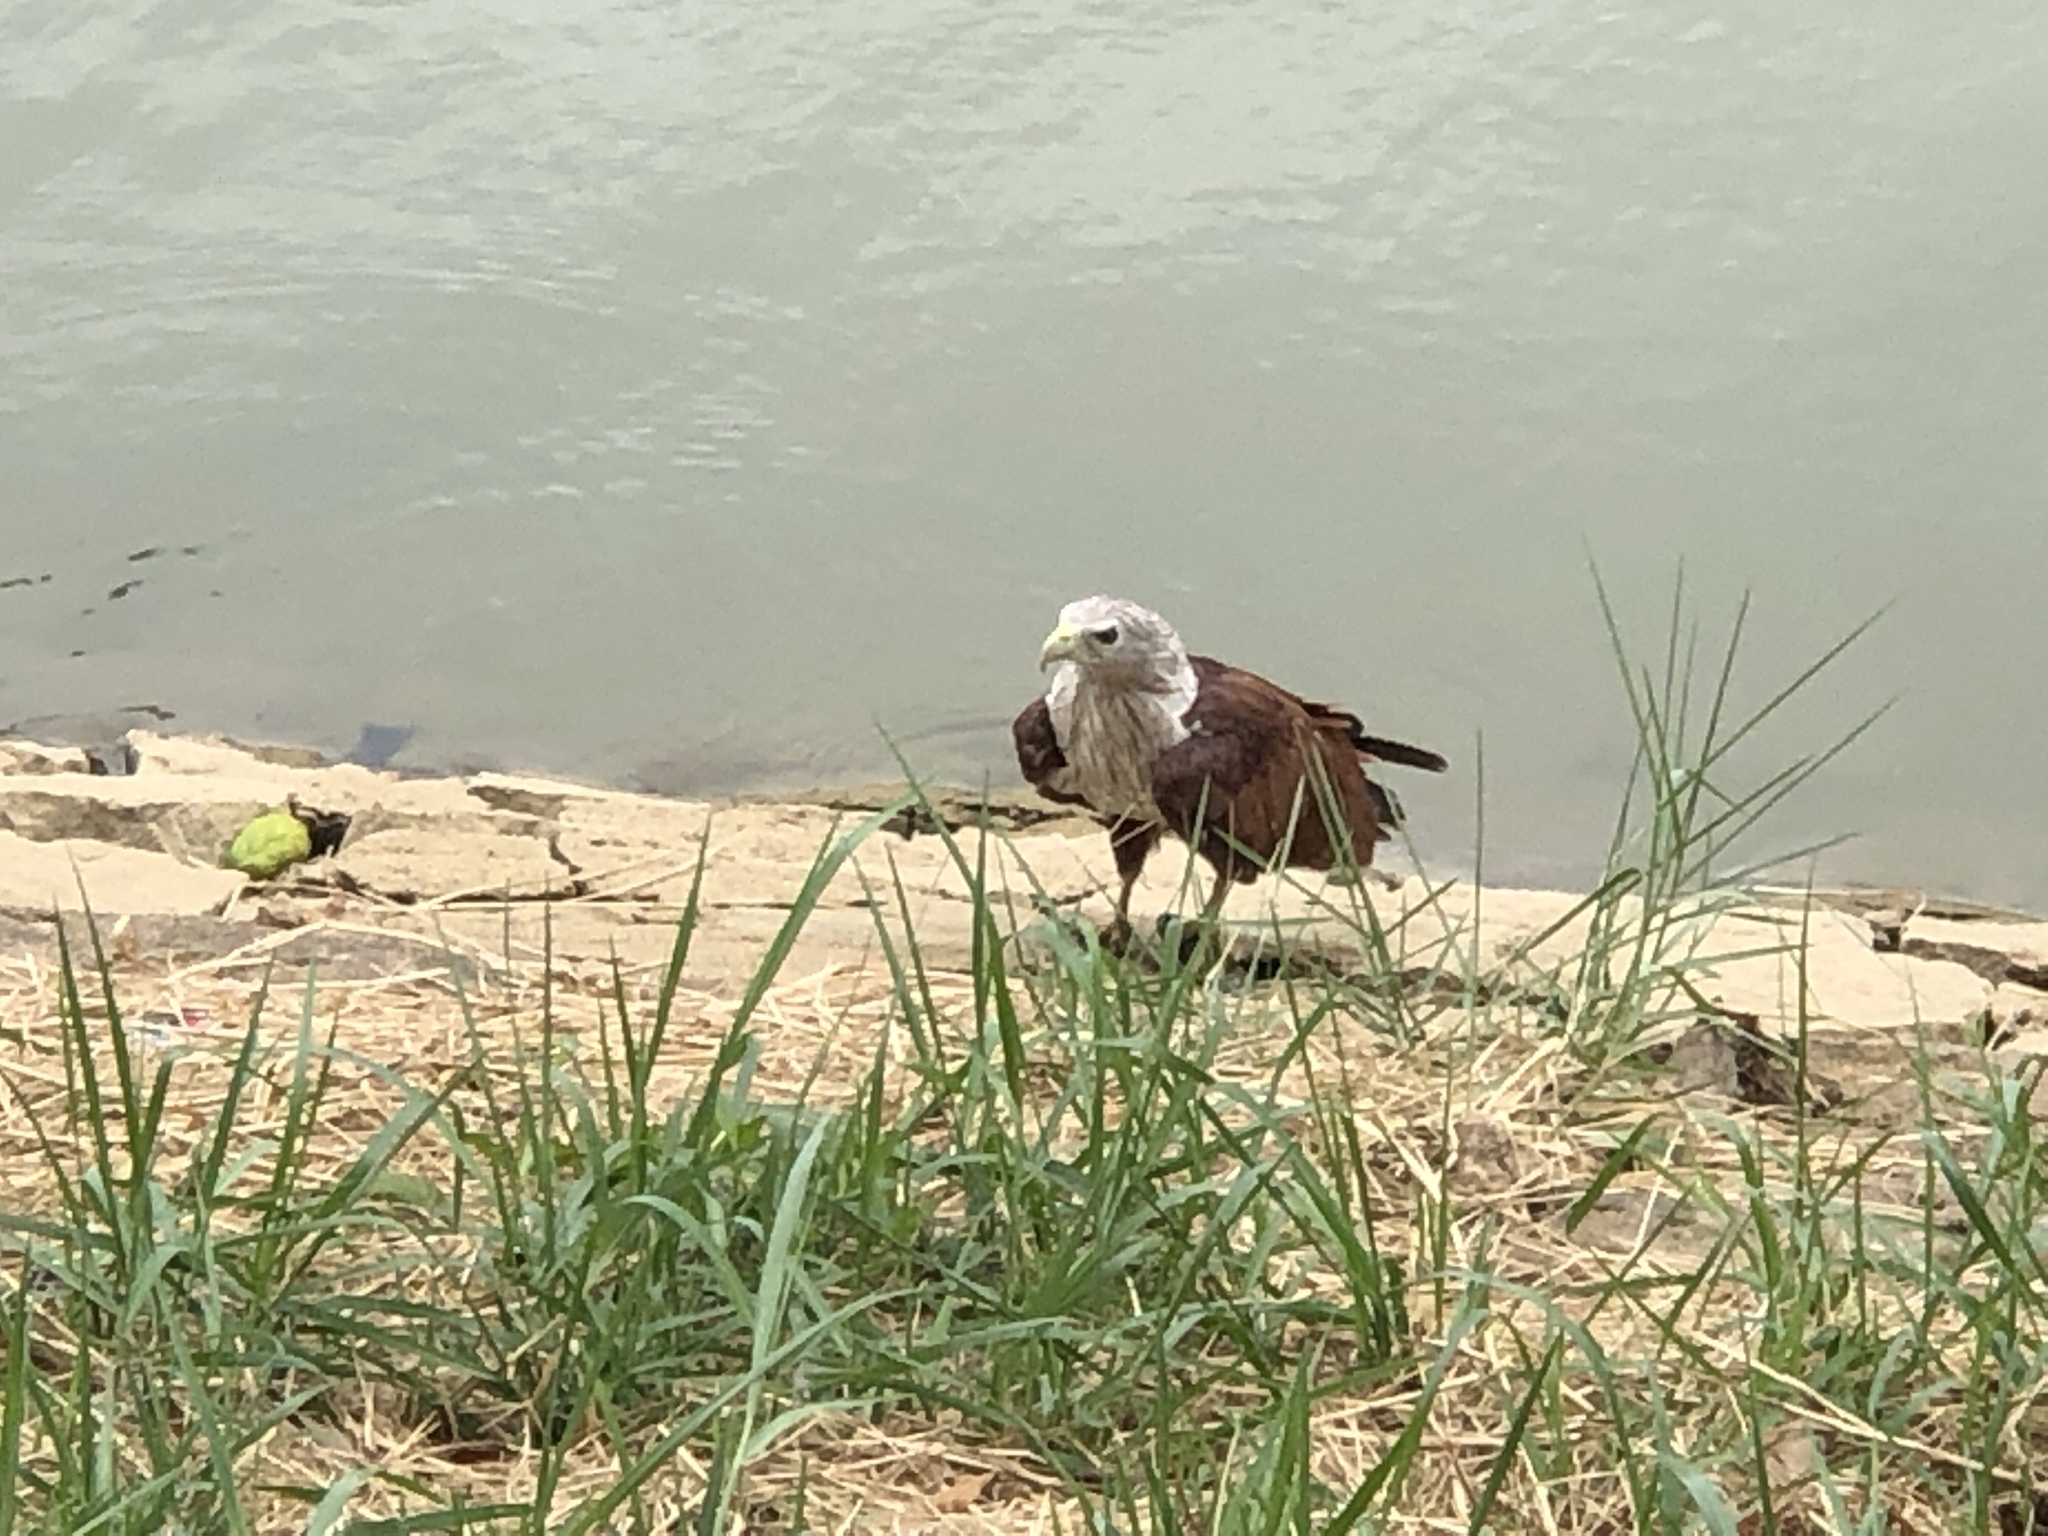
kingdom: Animalia
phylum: Chordata
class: Aves
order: Accipitriformes
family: Accipitridae
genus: Haliastur
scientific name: Haliastur indus
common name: Brahminy kite
